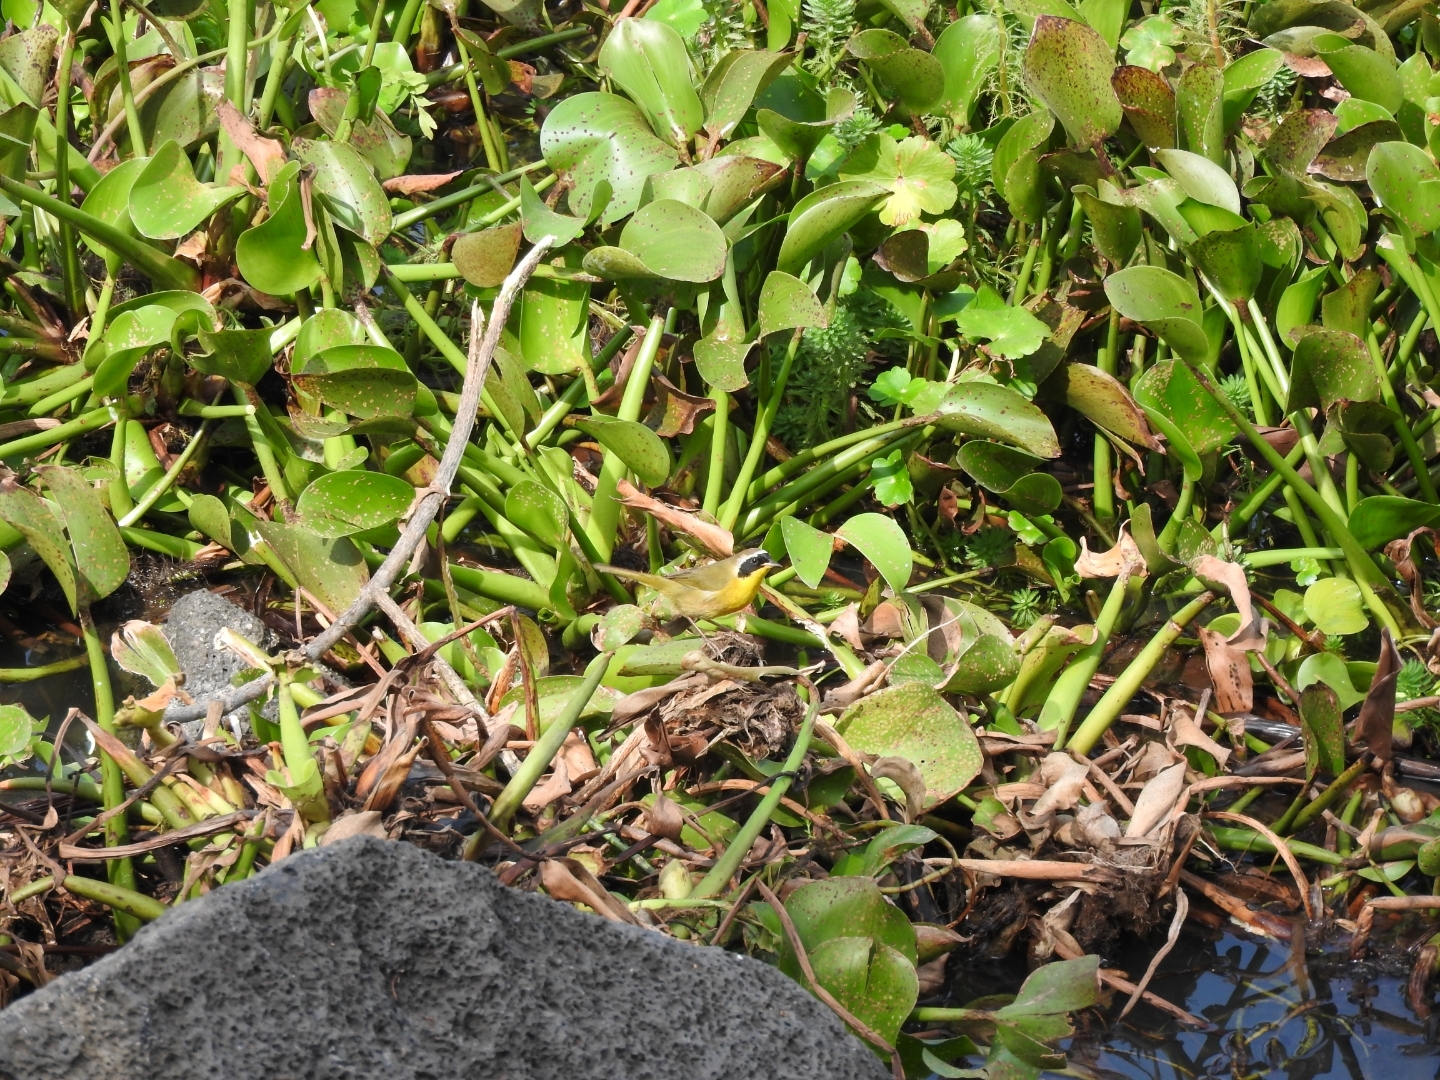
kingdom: Animalia
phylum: Chordata
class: Aves
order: Passeriformes
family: Parulidae
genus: Geothlypis
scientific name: Geothlypis trichas
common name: Common yellowthroat
